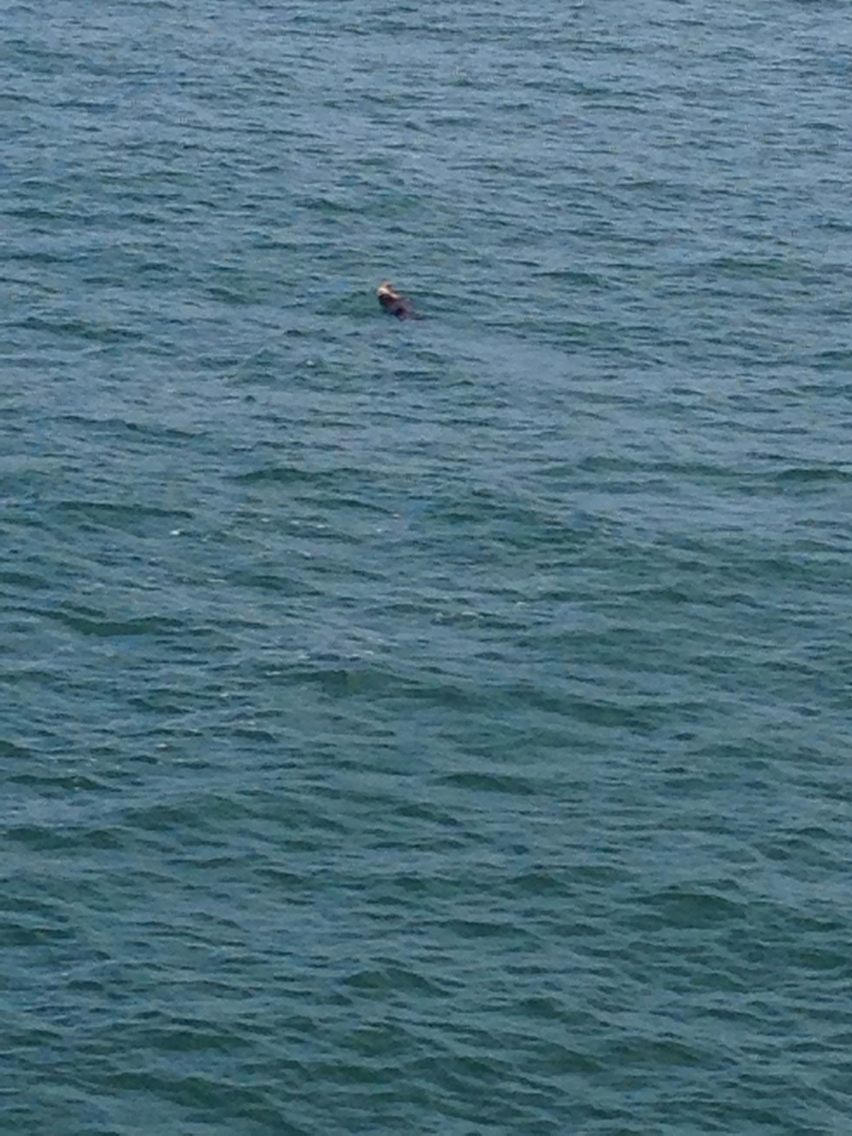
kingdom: Animalia
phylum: Chordata
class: Mammalia
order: Carnivora
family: Mustelidae
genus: Enhydra
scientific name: Enhydra lutris
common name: Sea otter
